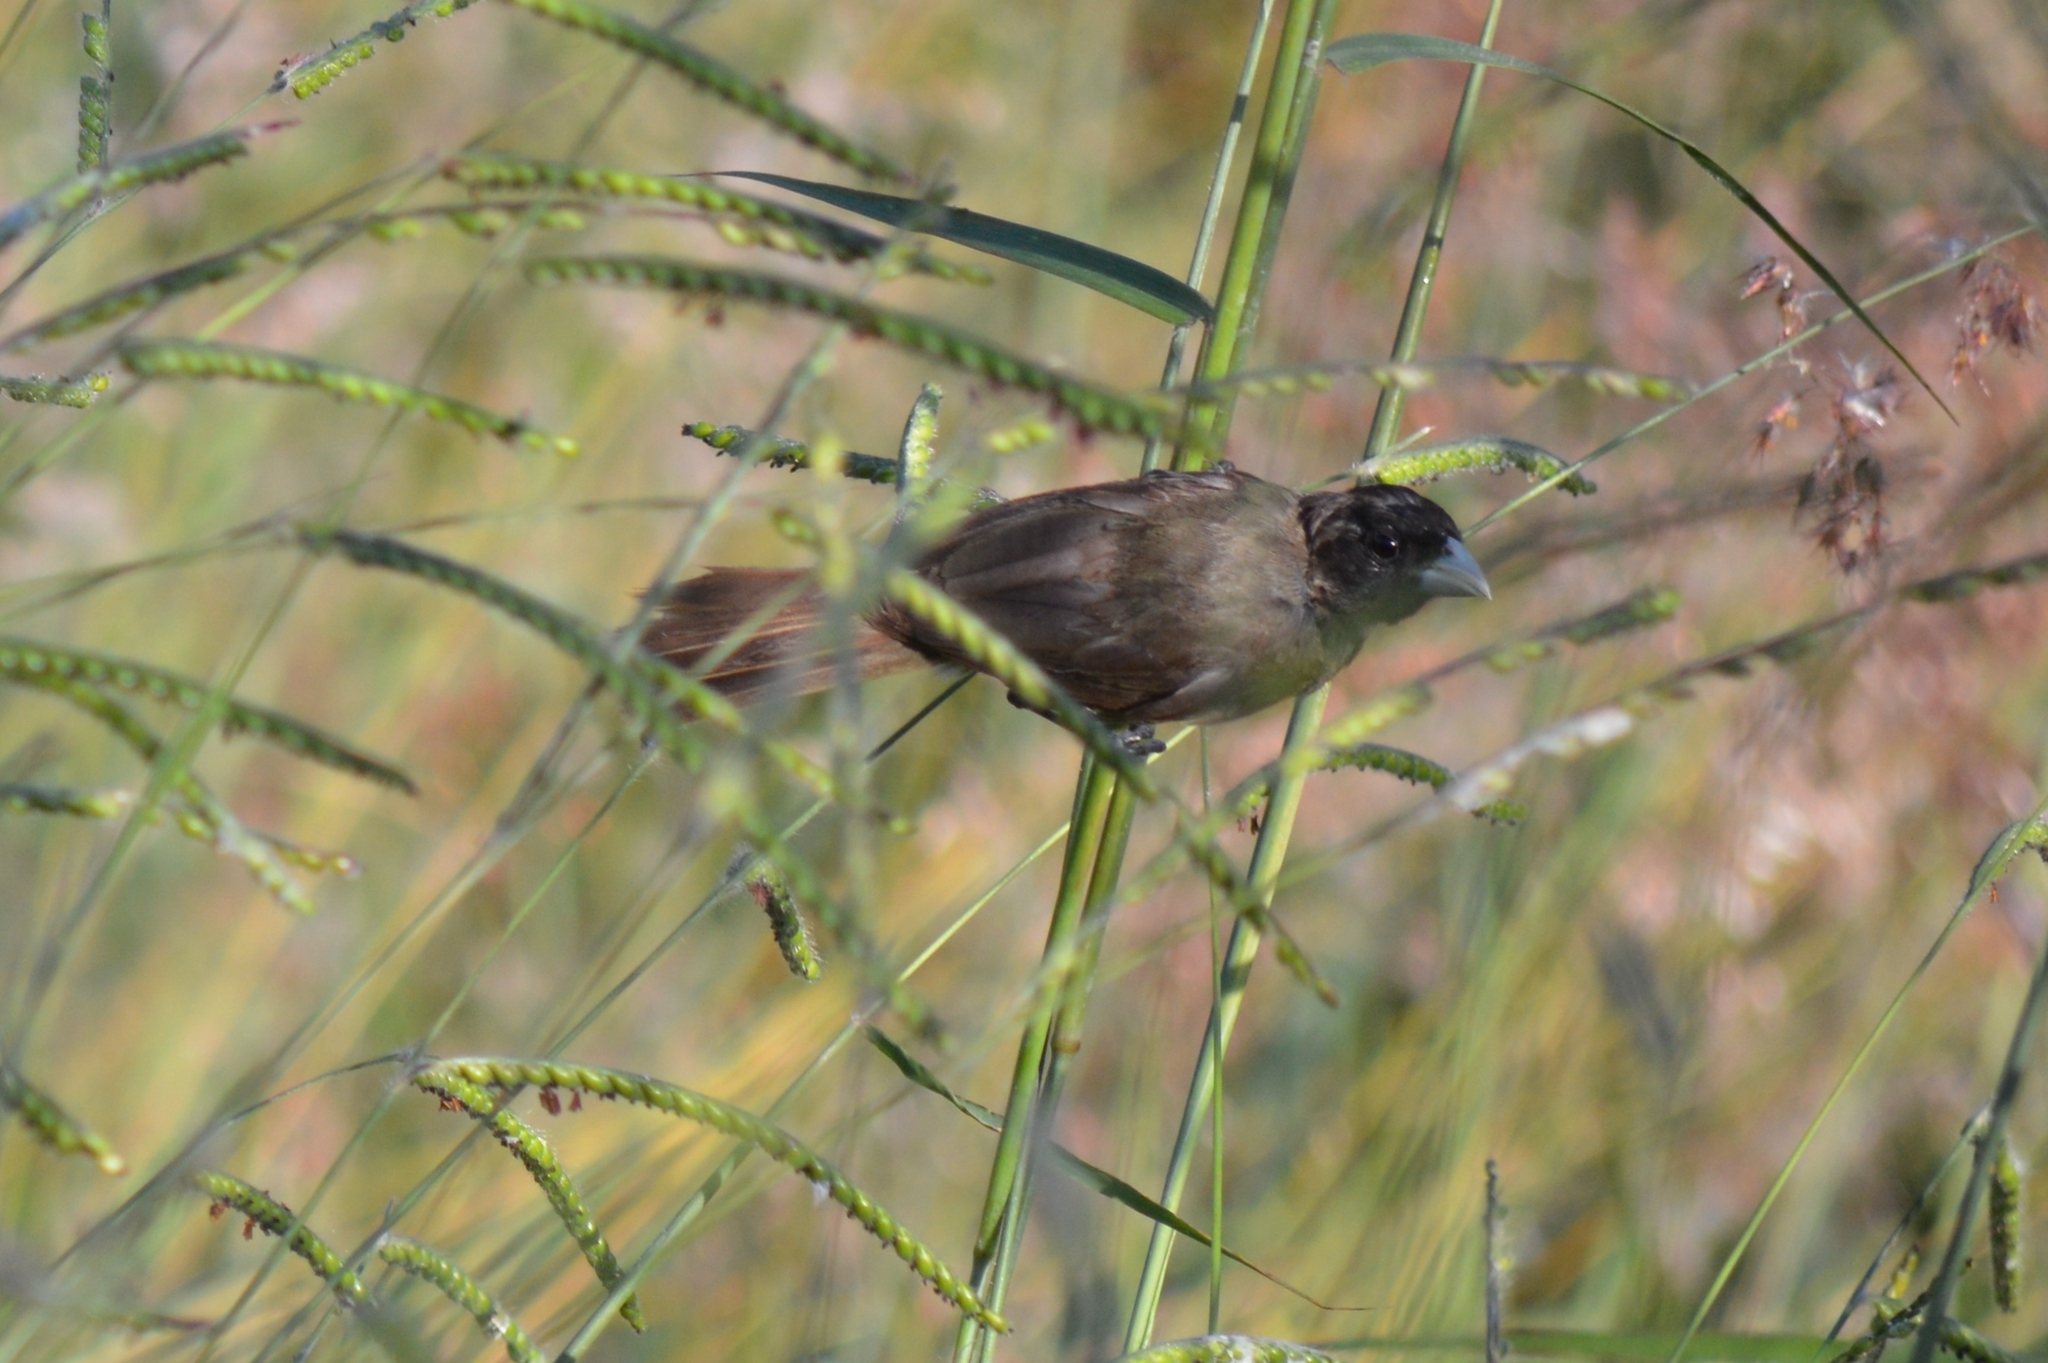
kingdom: Animalia
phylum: Chordata
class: Aves
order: Passeriformes
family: Thraupidae
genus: Sporophila
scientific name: Sporophila nigricollis
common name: Yellow-bellied seedeater
